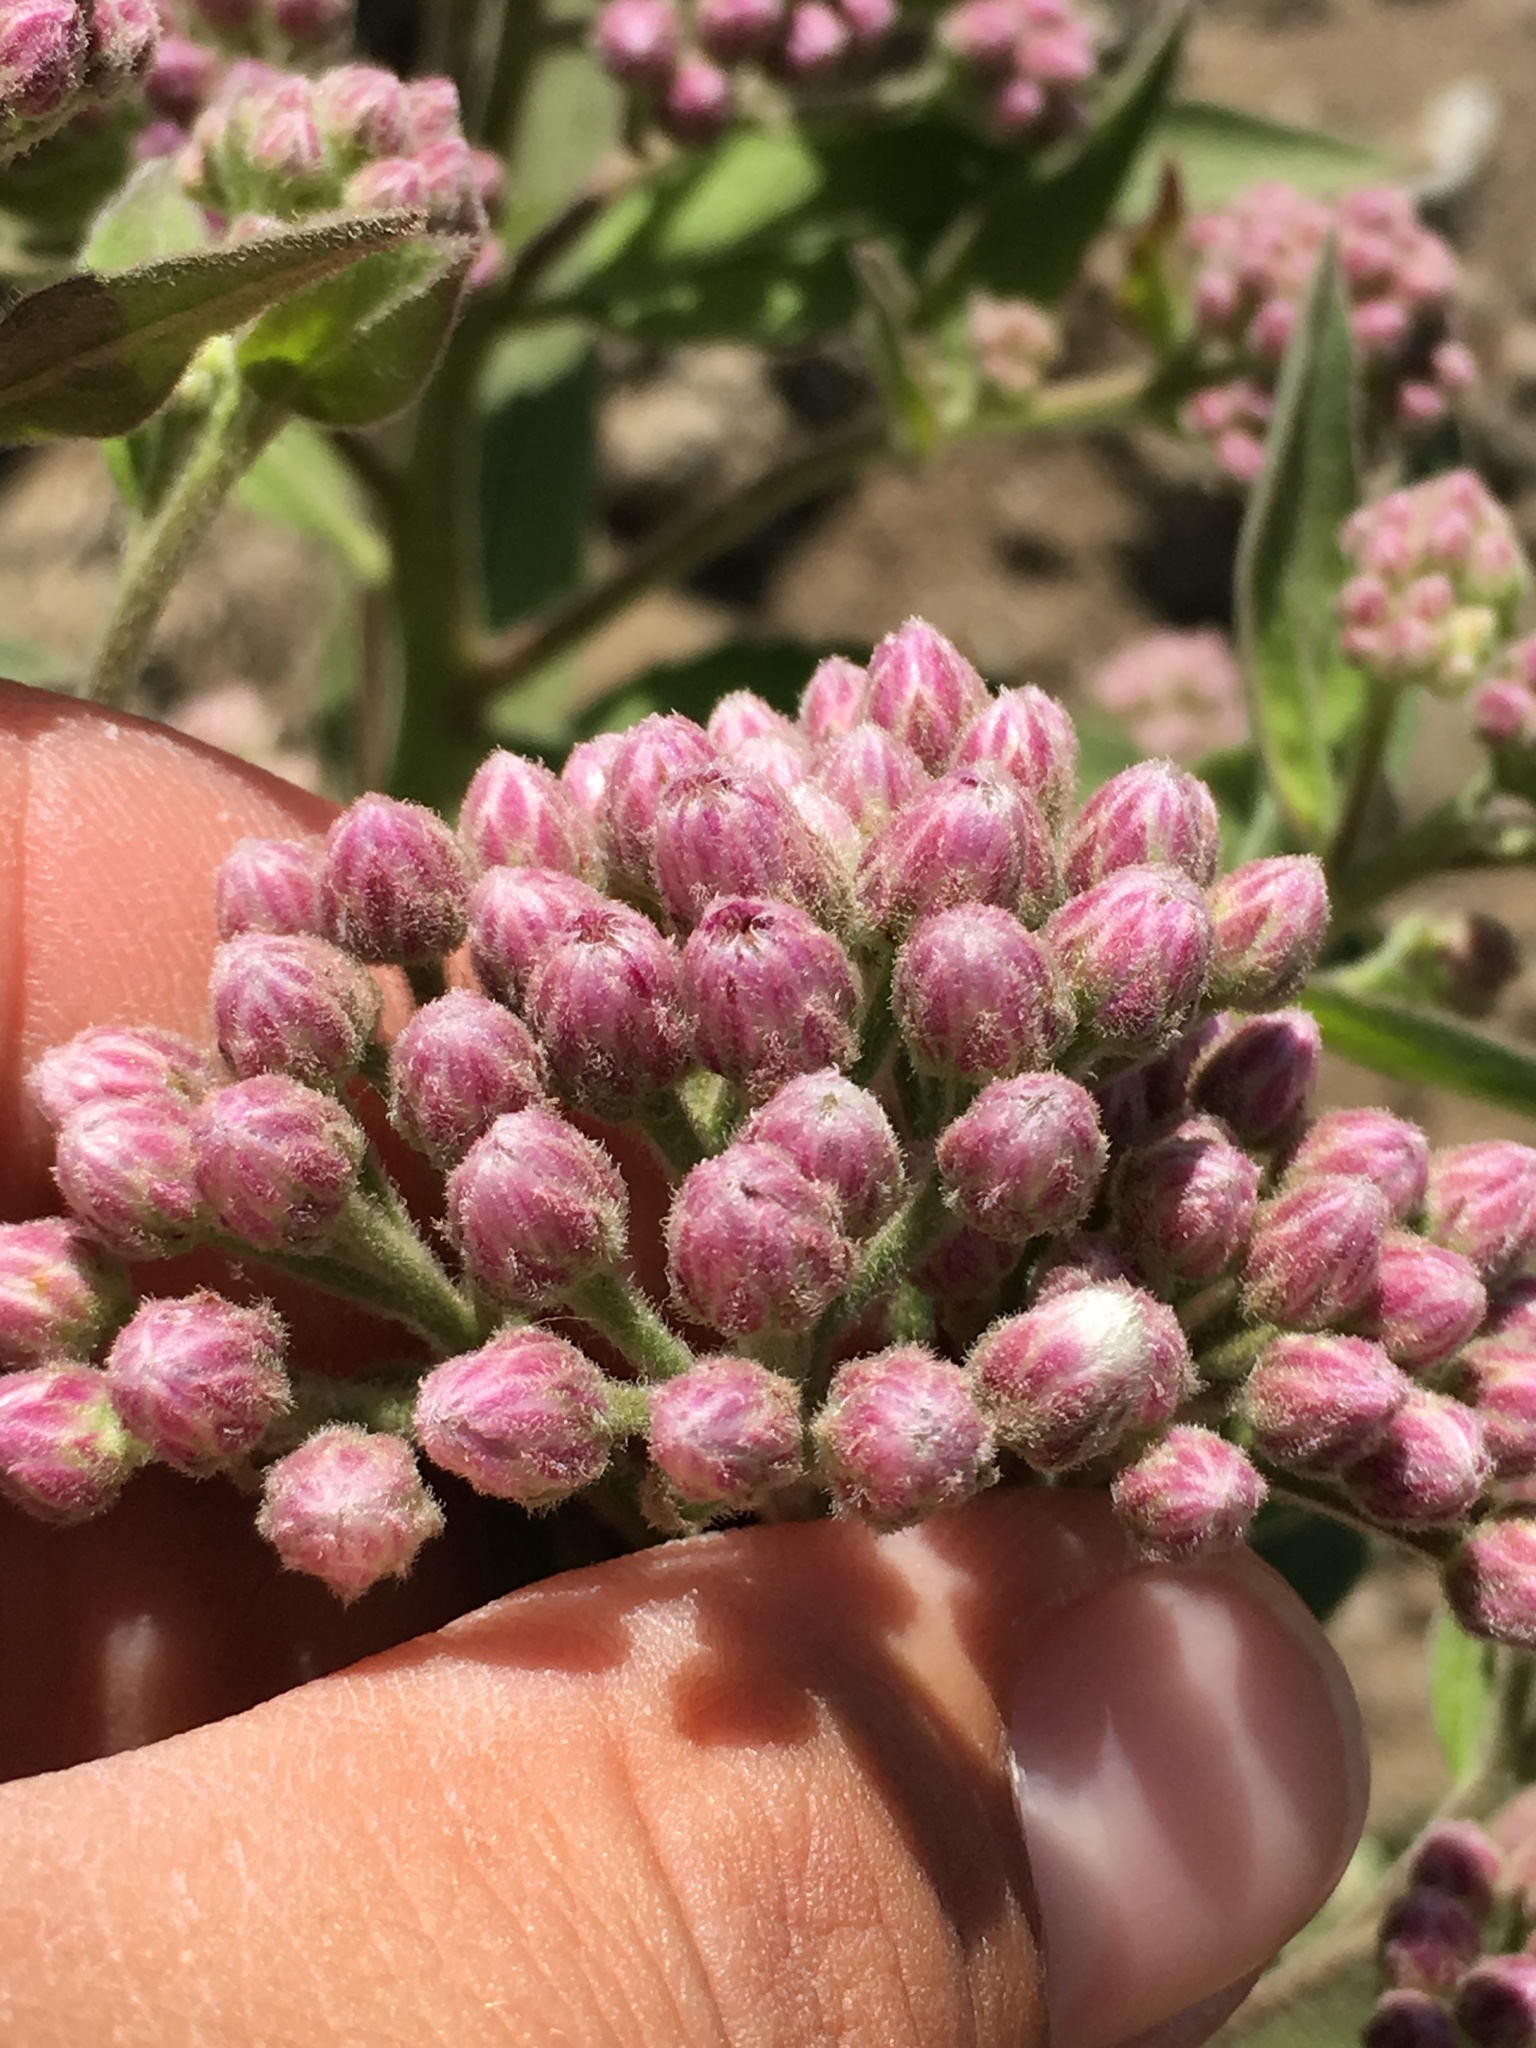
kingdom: Plantae
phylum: Tracheophyta
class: Magnoliopsida
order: Asterales
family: Asteraceae
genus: Pluchea
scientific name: Pluchea odorata
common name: Saltmarsh fleabane
